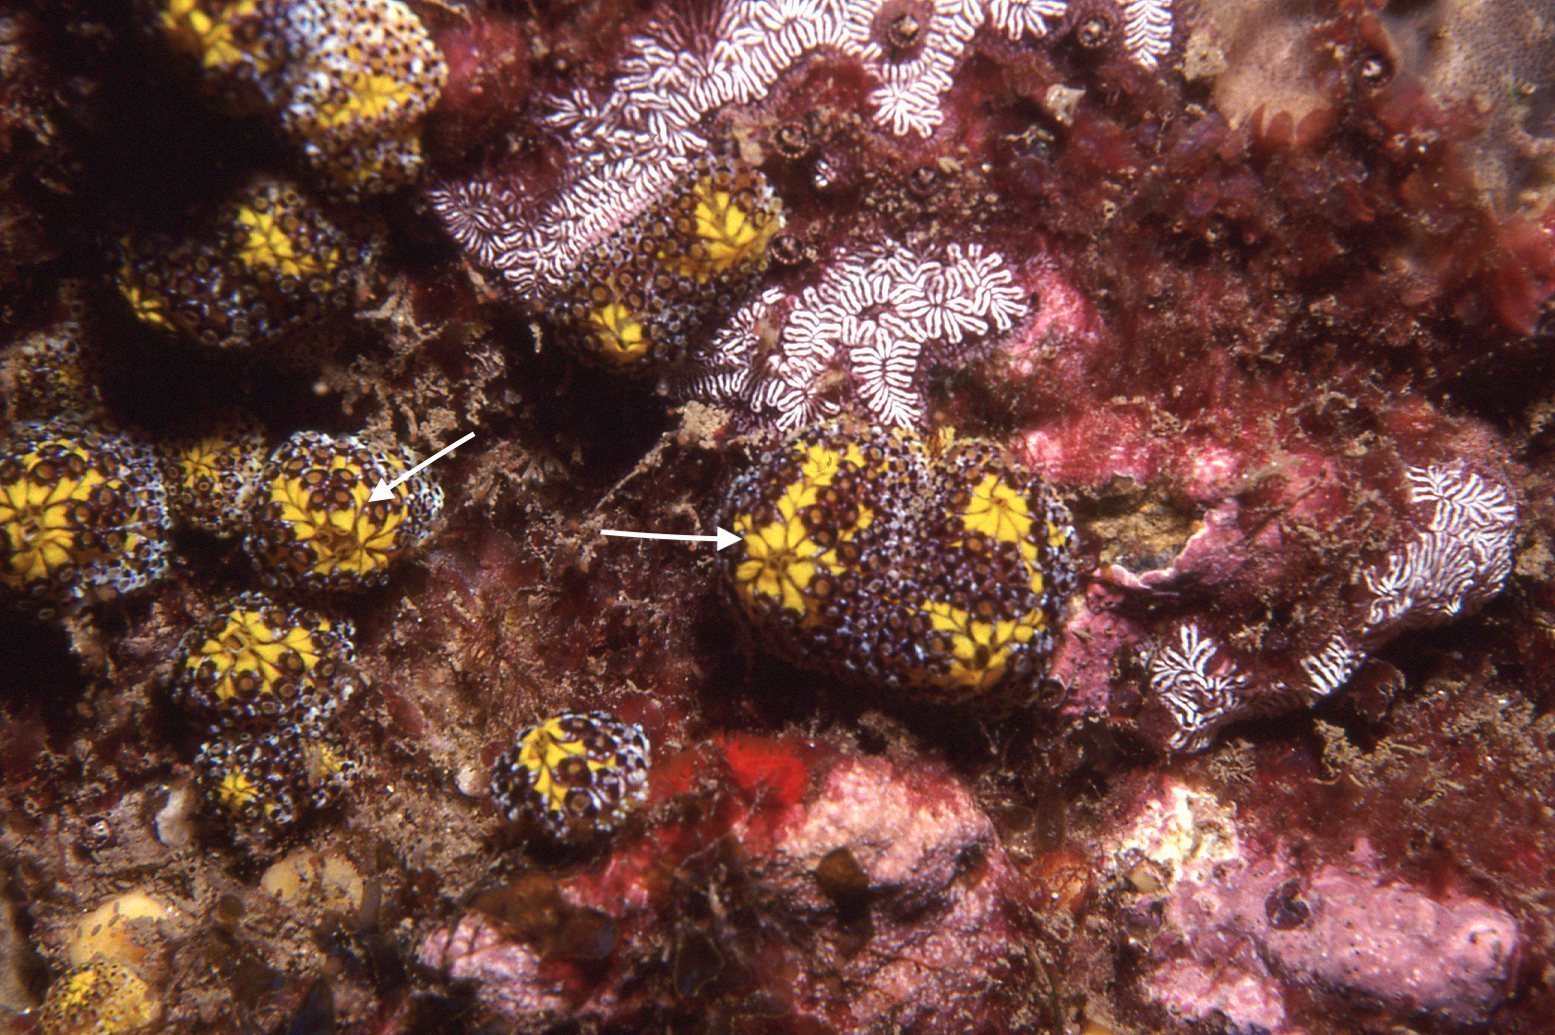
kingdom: Animalia
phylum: Chordata
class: Ascidiacea
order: Stolidobranchia
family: Styelidae
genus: Botrylloides
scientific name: Botrylloides magnicoecus
